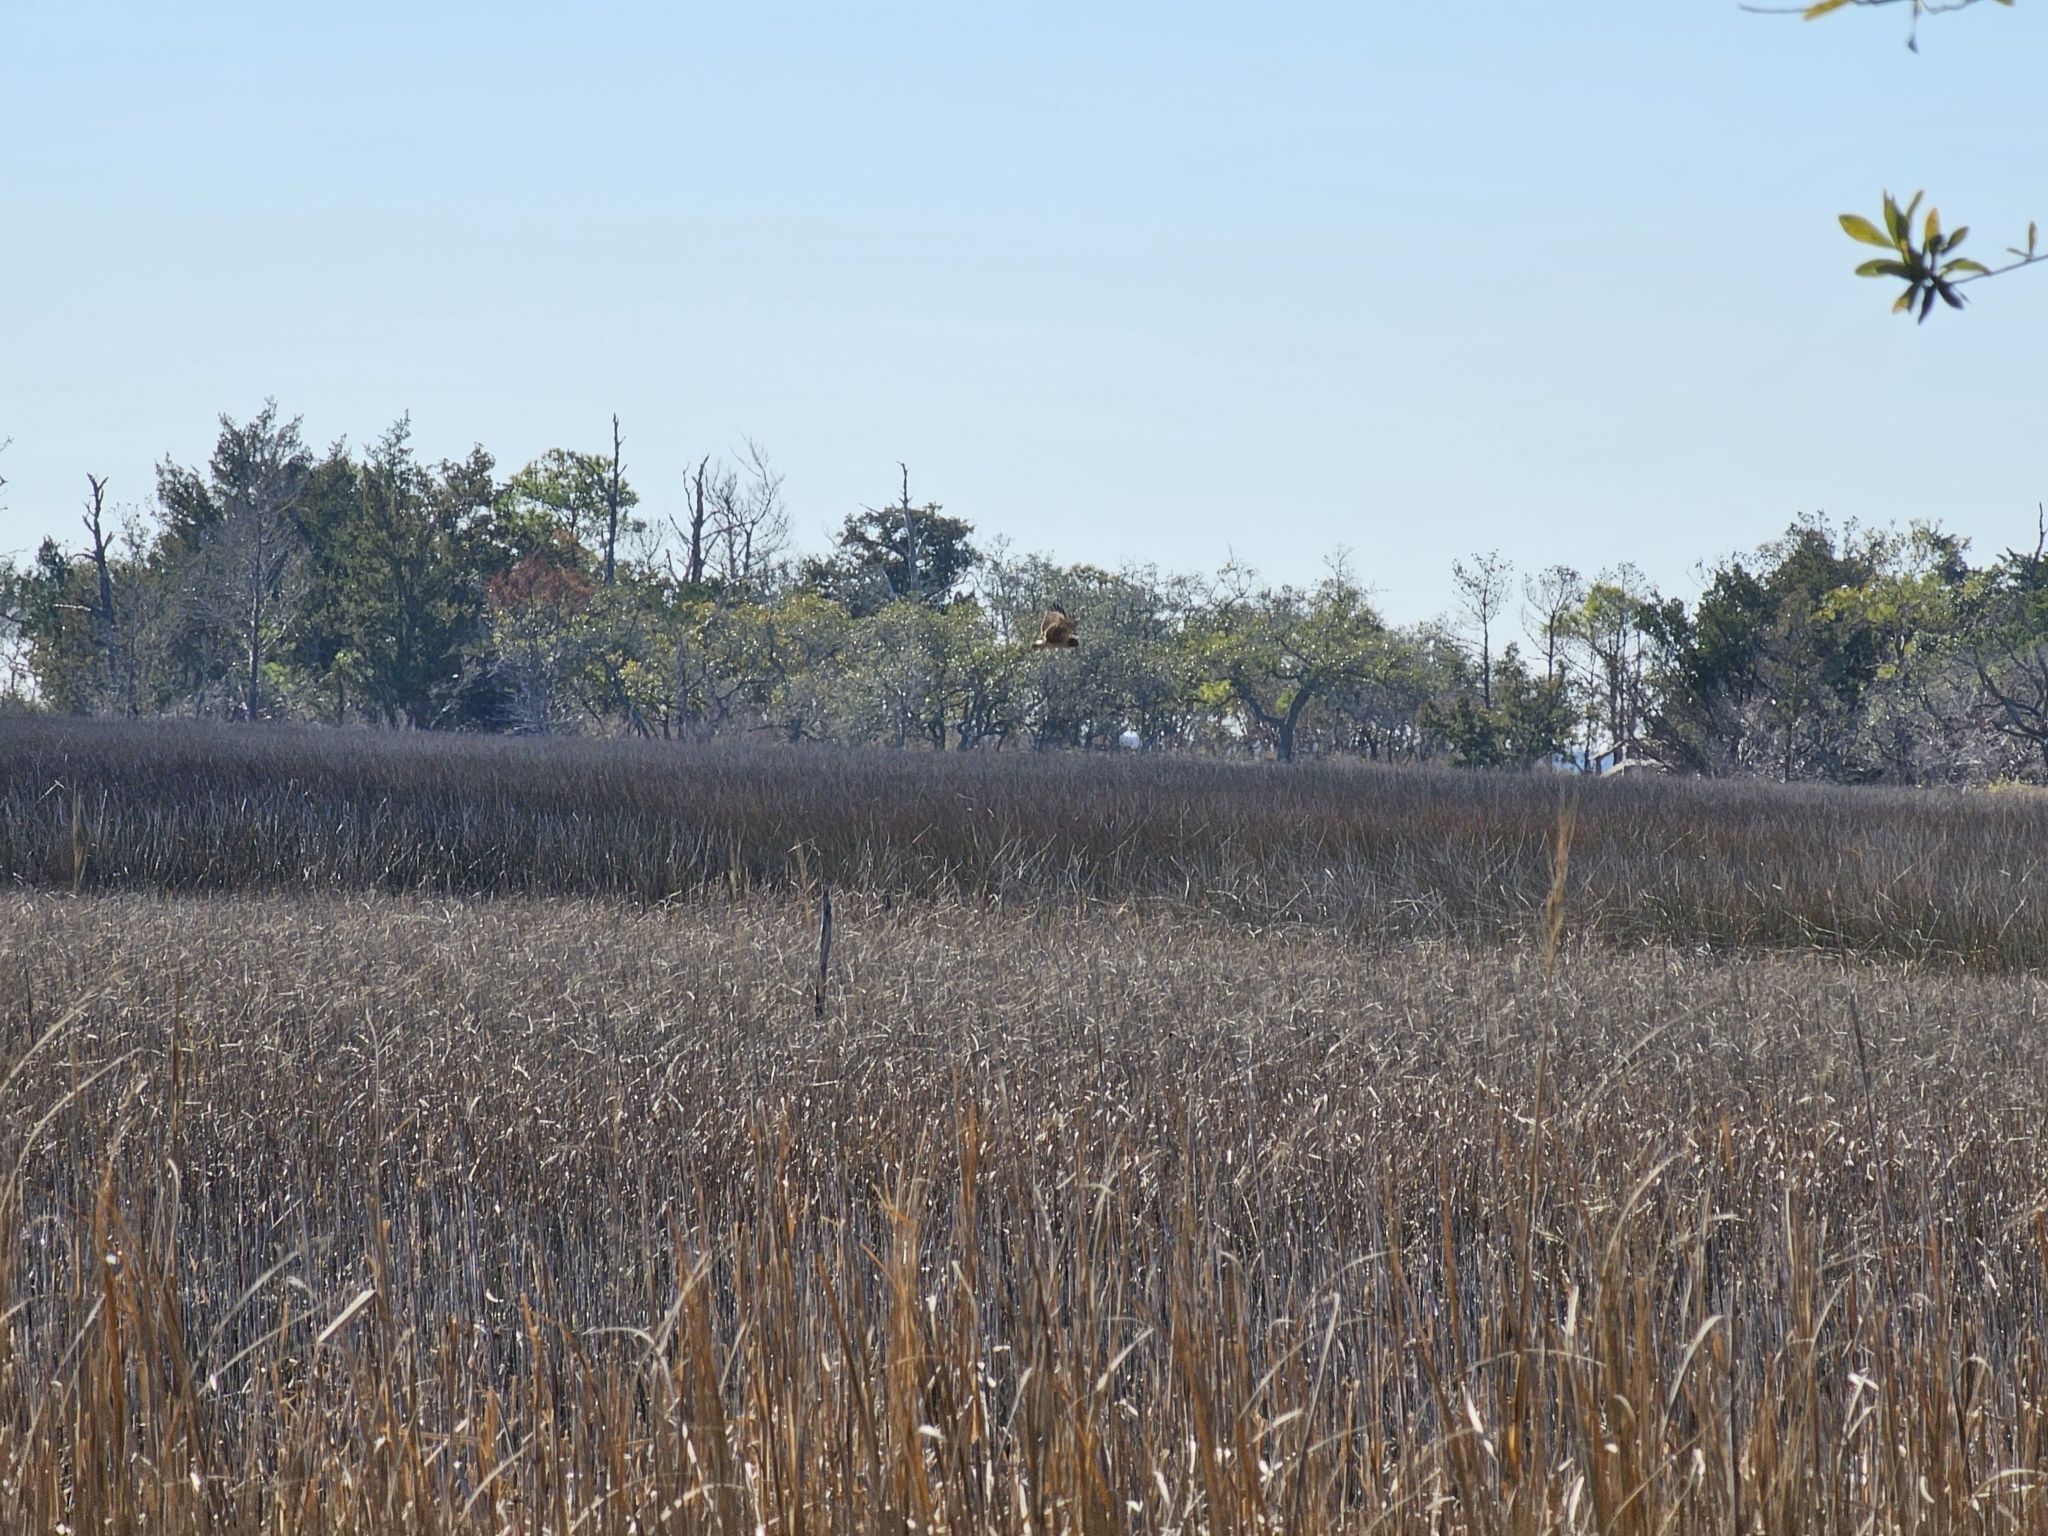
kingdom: Animalia
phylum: Chordata
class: Aves
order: Accipitriformes
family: Accipitridae
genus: Circus
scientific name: Circus cyaneus
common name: Hen harrier
